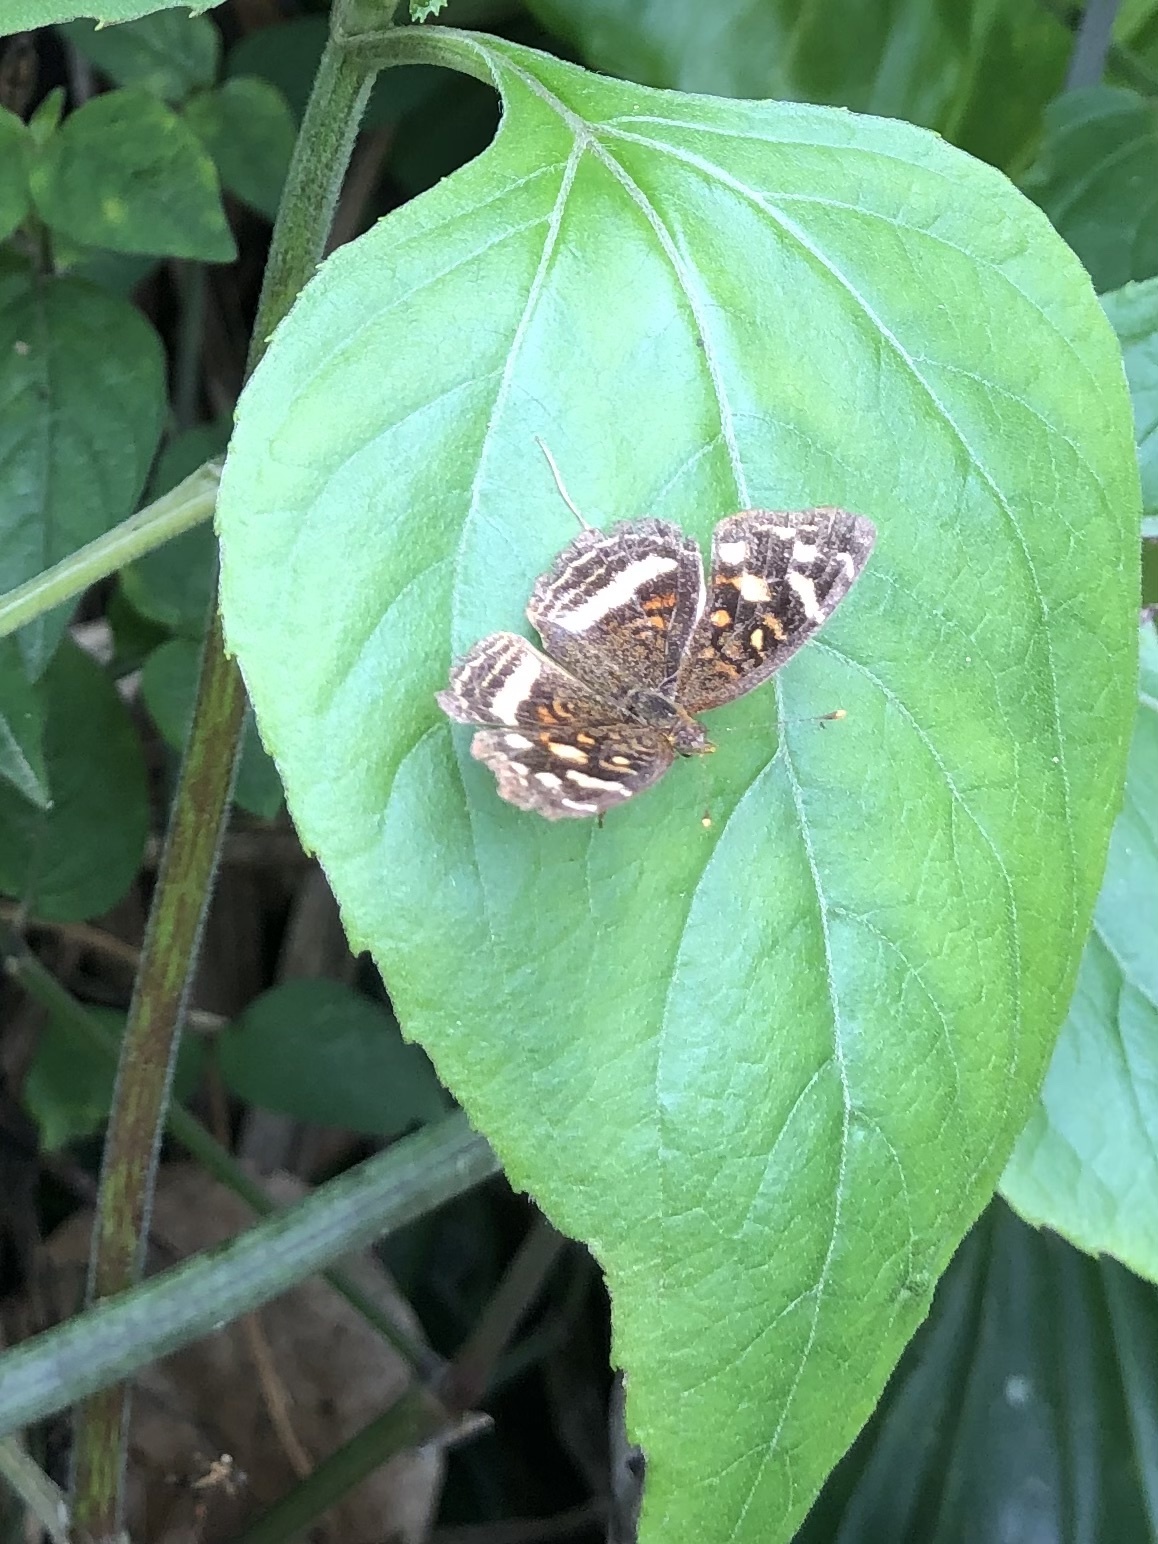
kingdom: Animalia
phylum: Arthropoda
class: Insecta
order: Lepidoptera
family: Nymphalidae
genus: Anthanassa
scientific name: Anthanassa drusilla
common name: Orange-patched crescent
